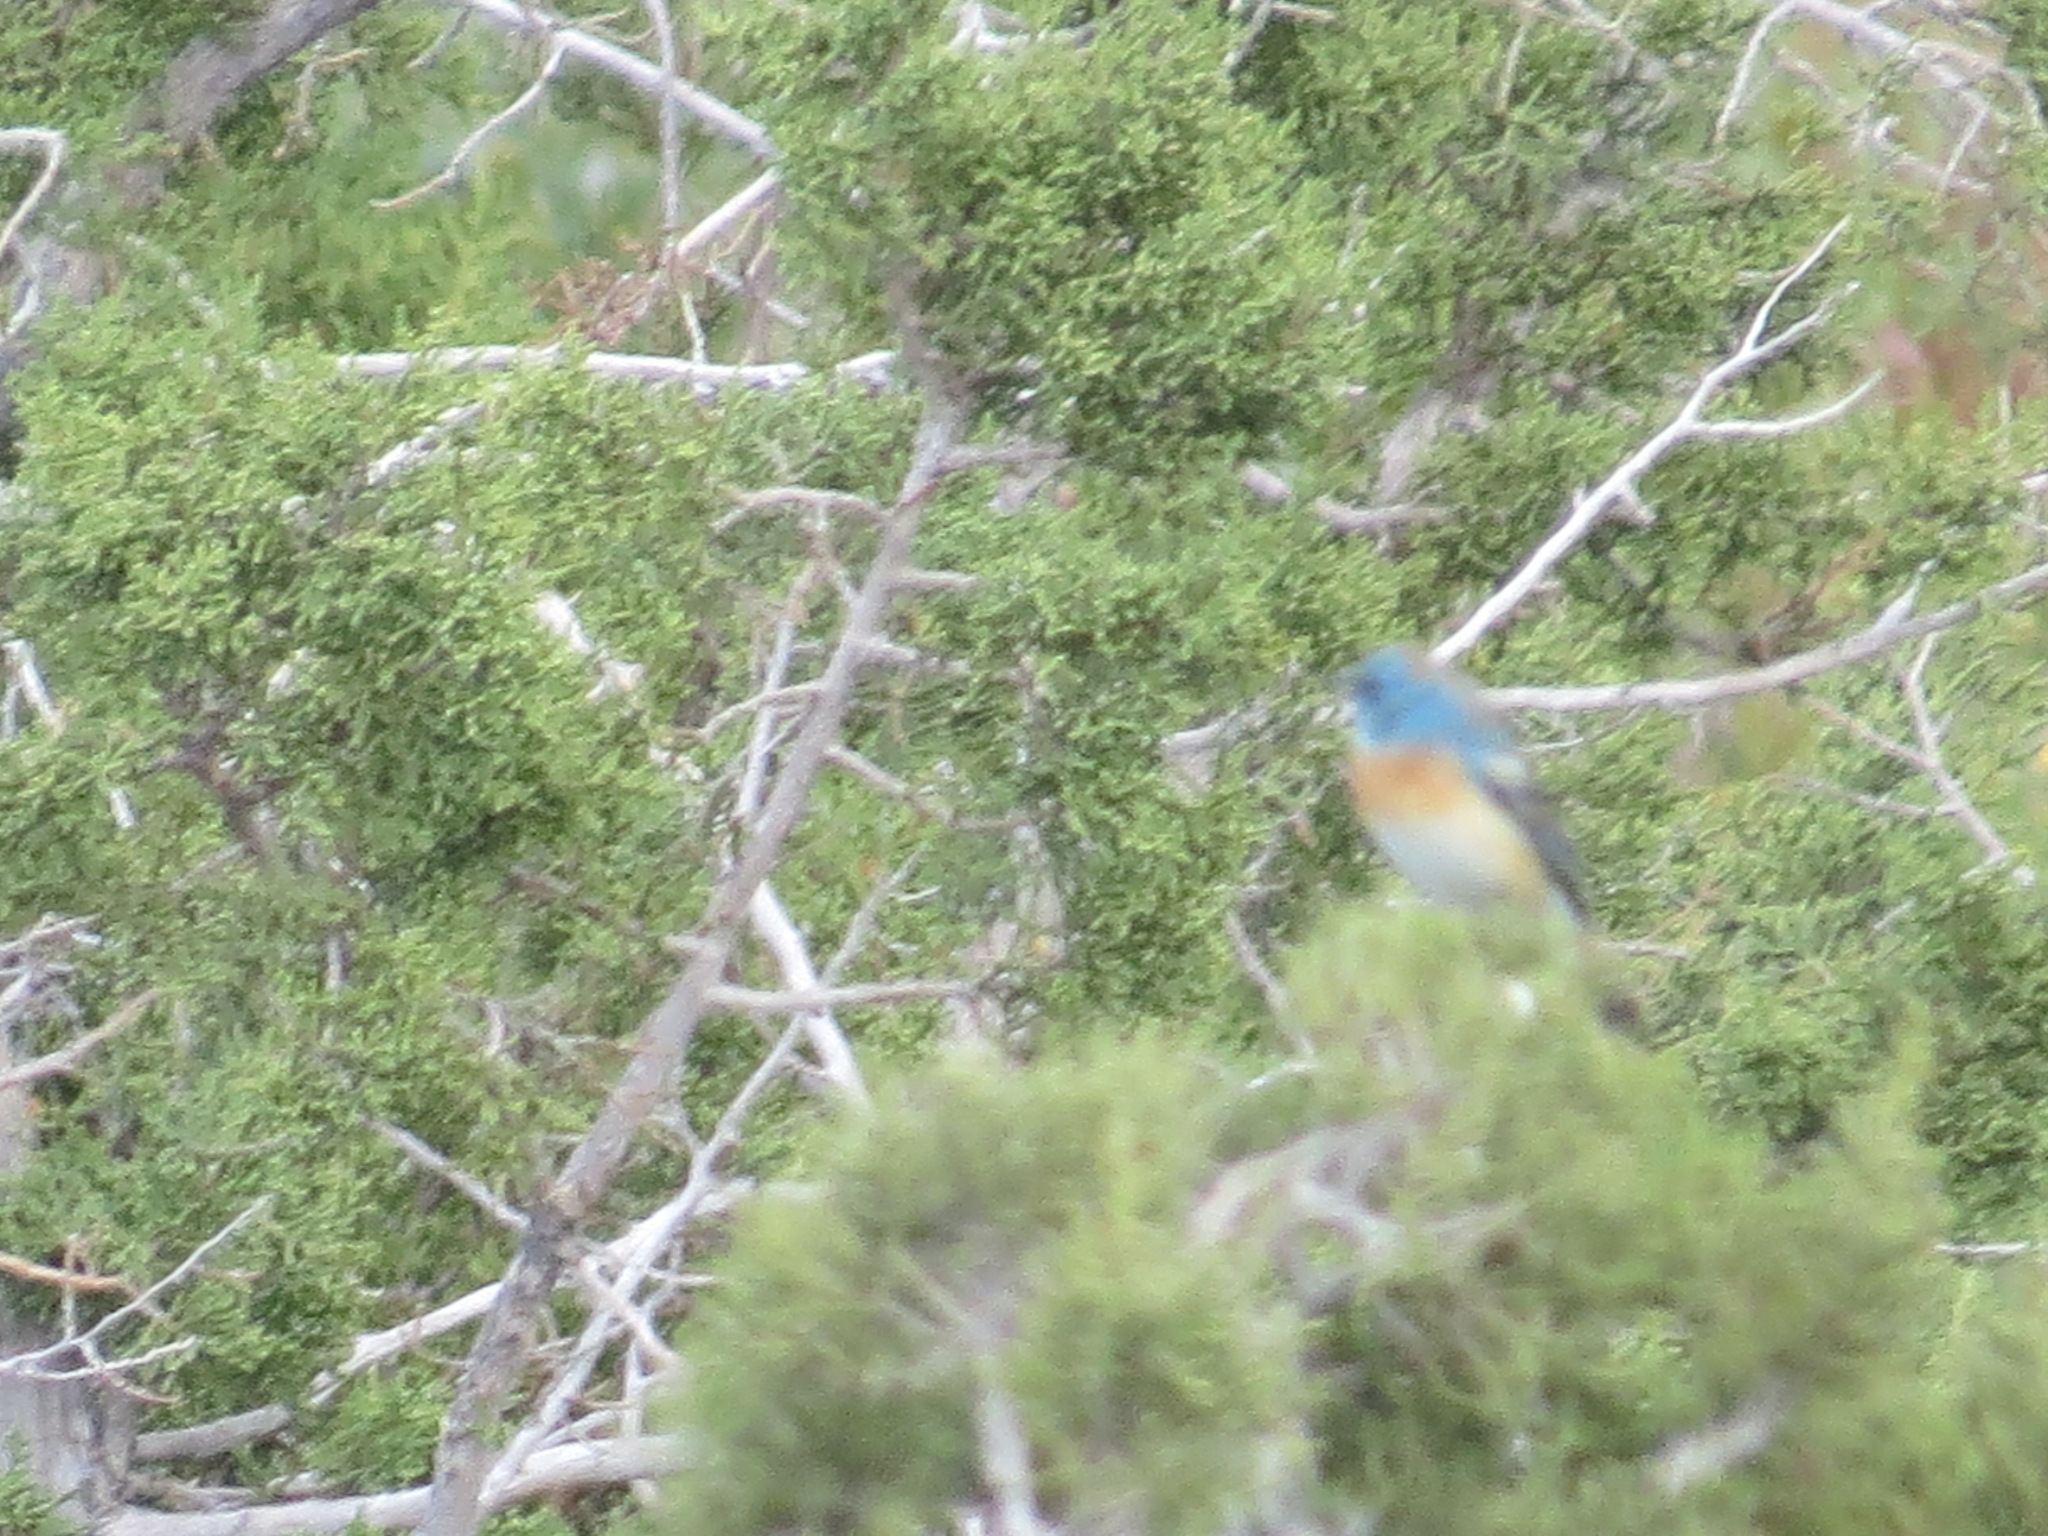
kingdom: Animalia
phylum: Chordata
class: Aves
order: Passeriformes
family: Cardinalidae
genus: Passerina
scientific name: Passerina amoena
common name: Lazuli bunting
